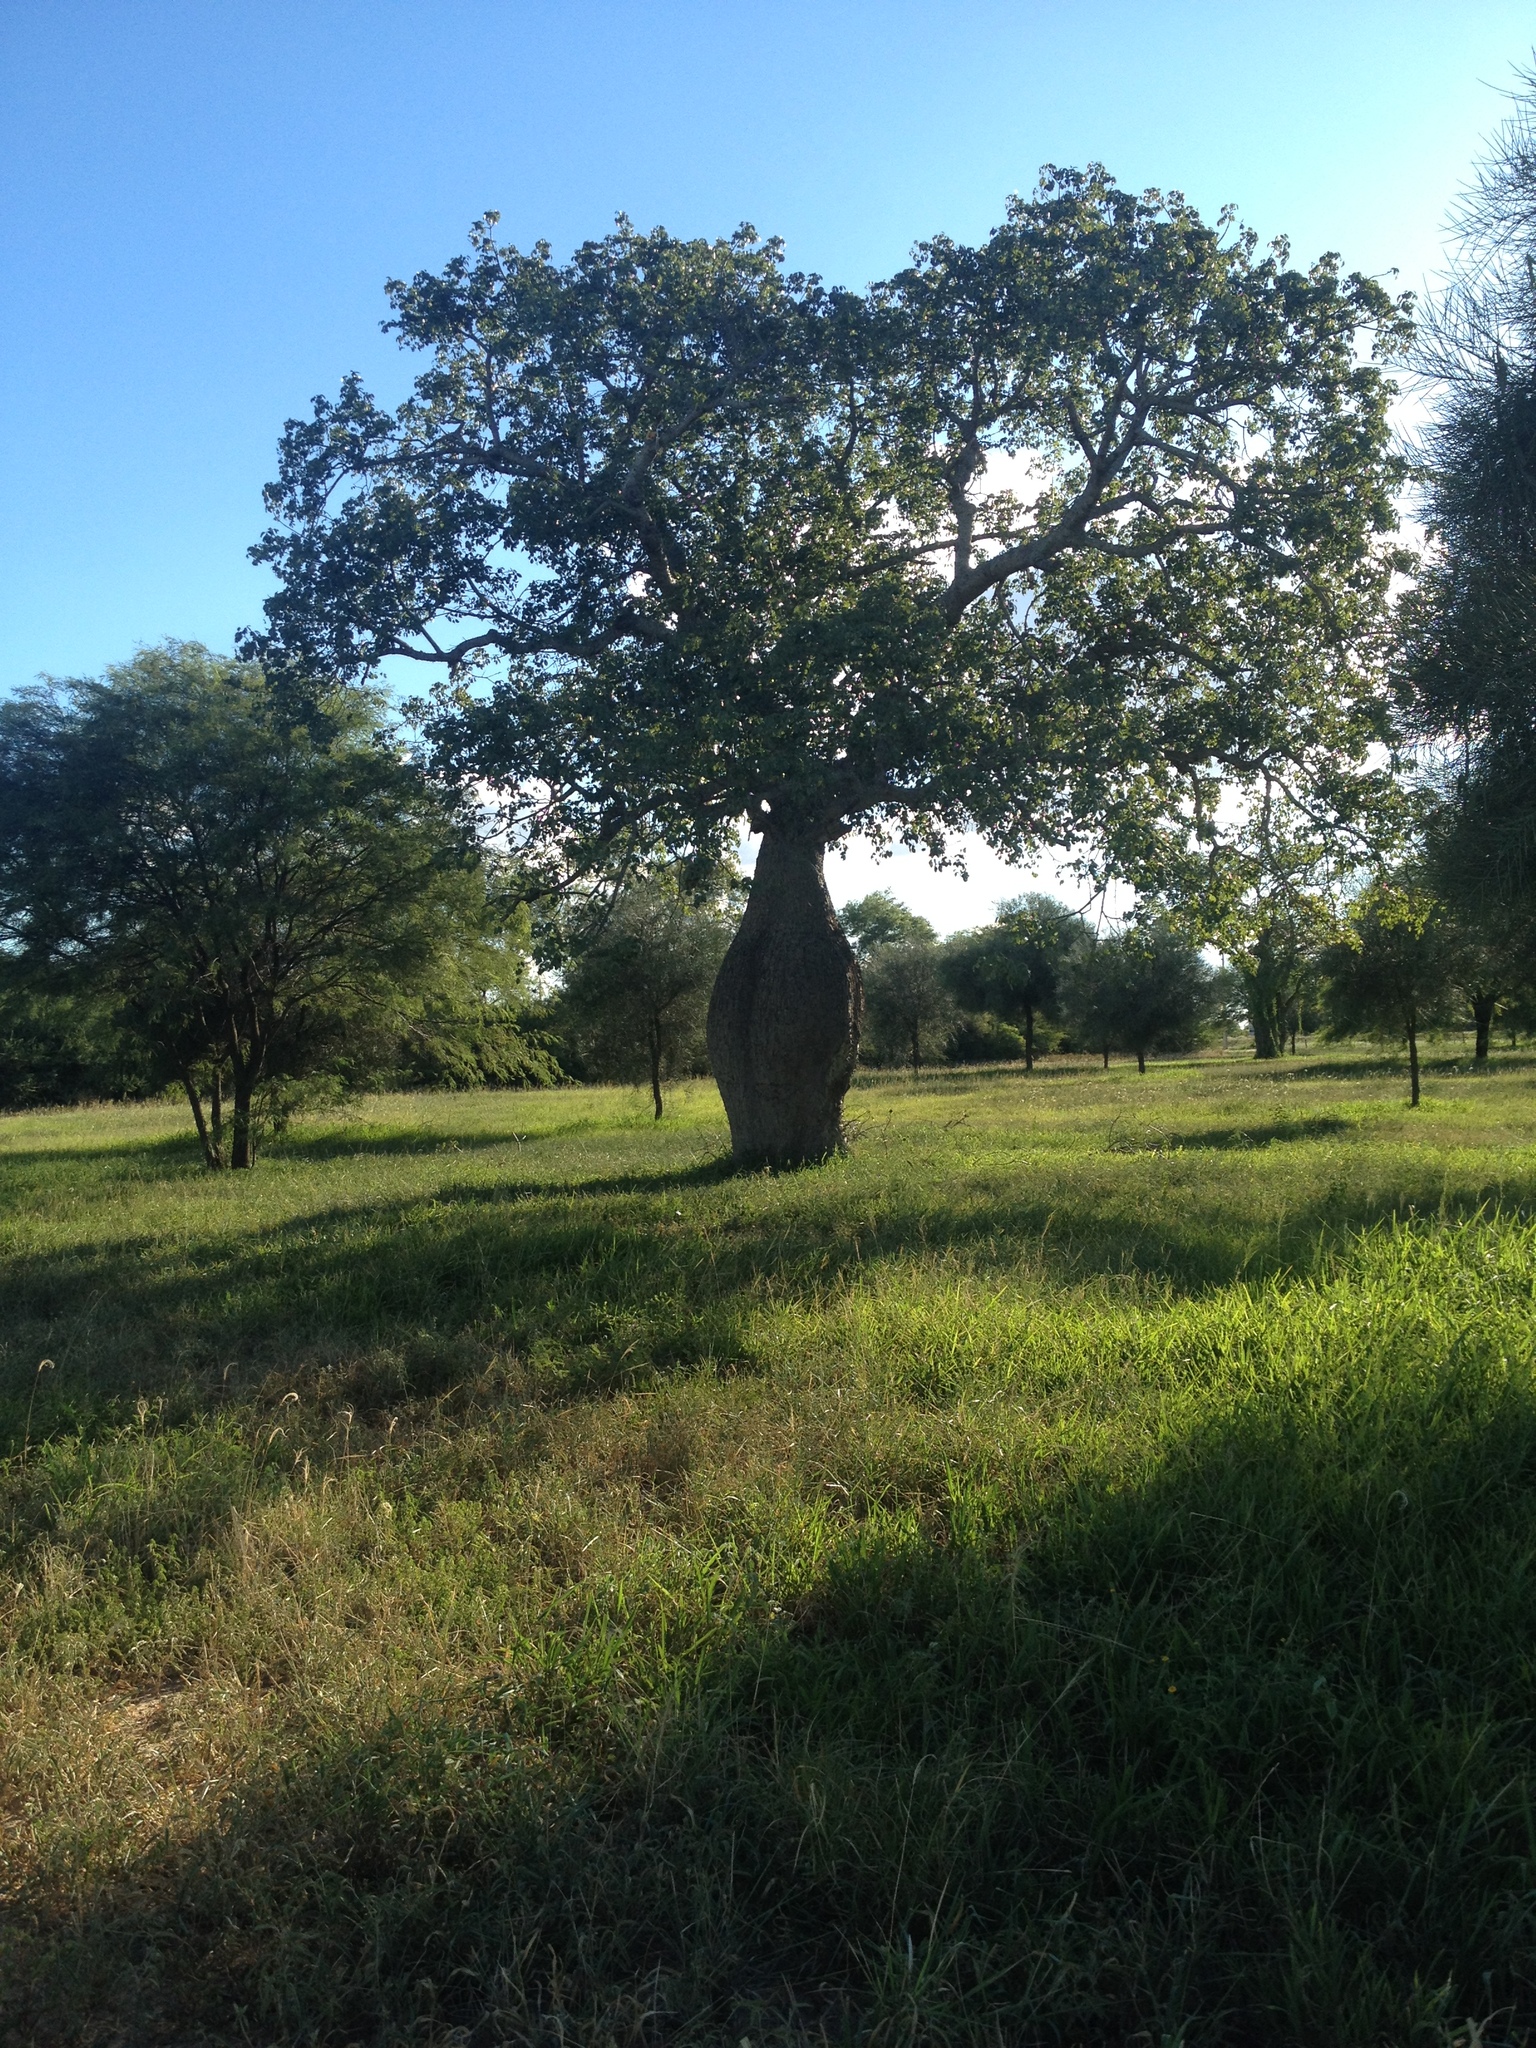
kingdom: Plantae
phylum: Tracheophyta
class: Magnoliopsida
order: Malvales
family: Malvaceae
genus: Ceiba
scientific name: Ceiba chodatii
